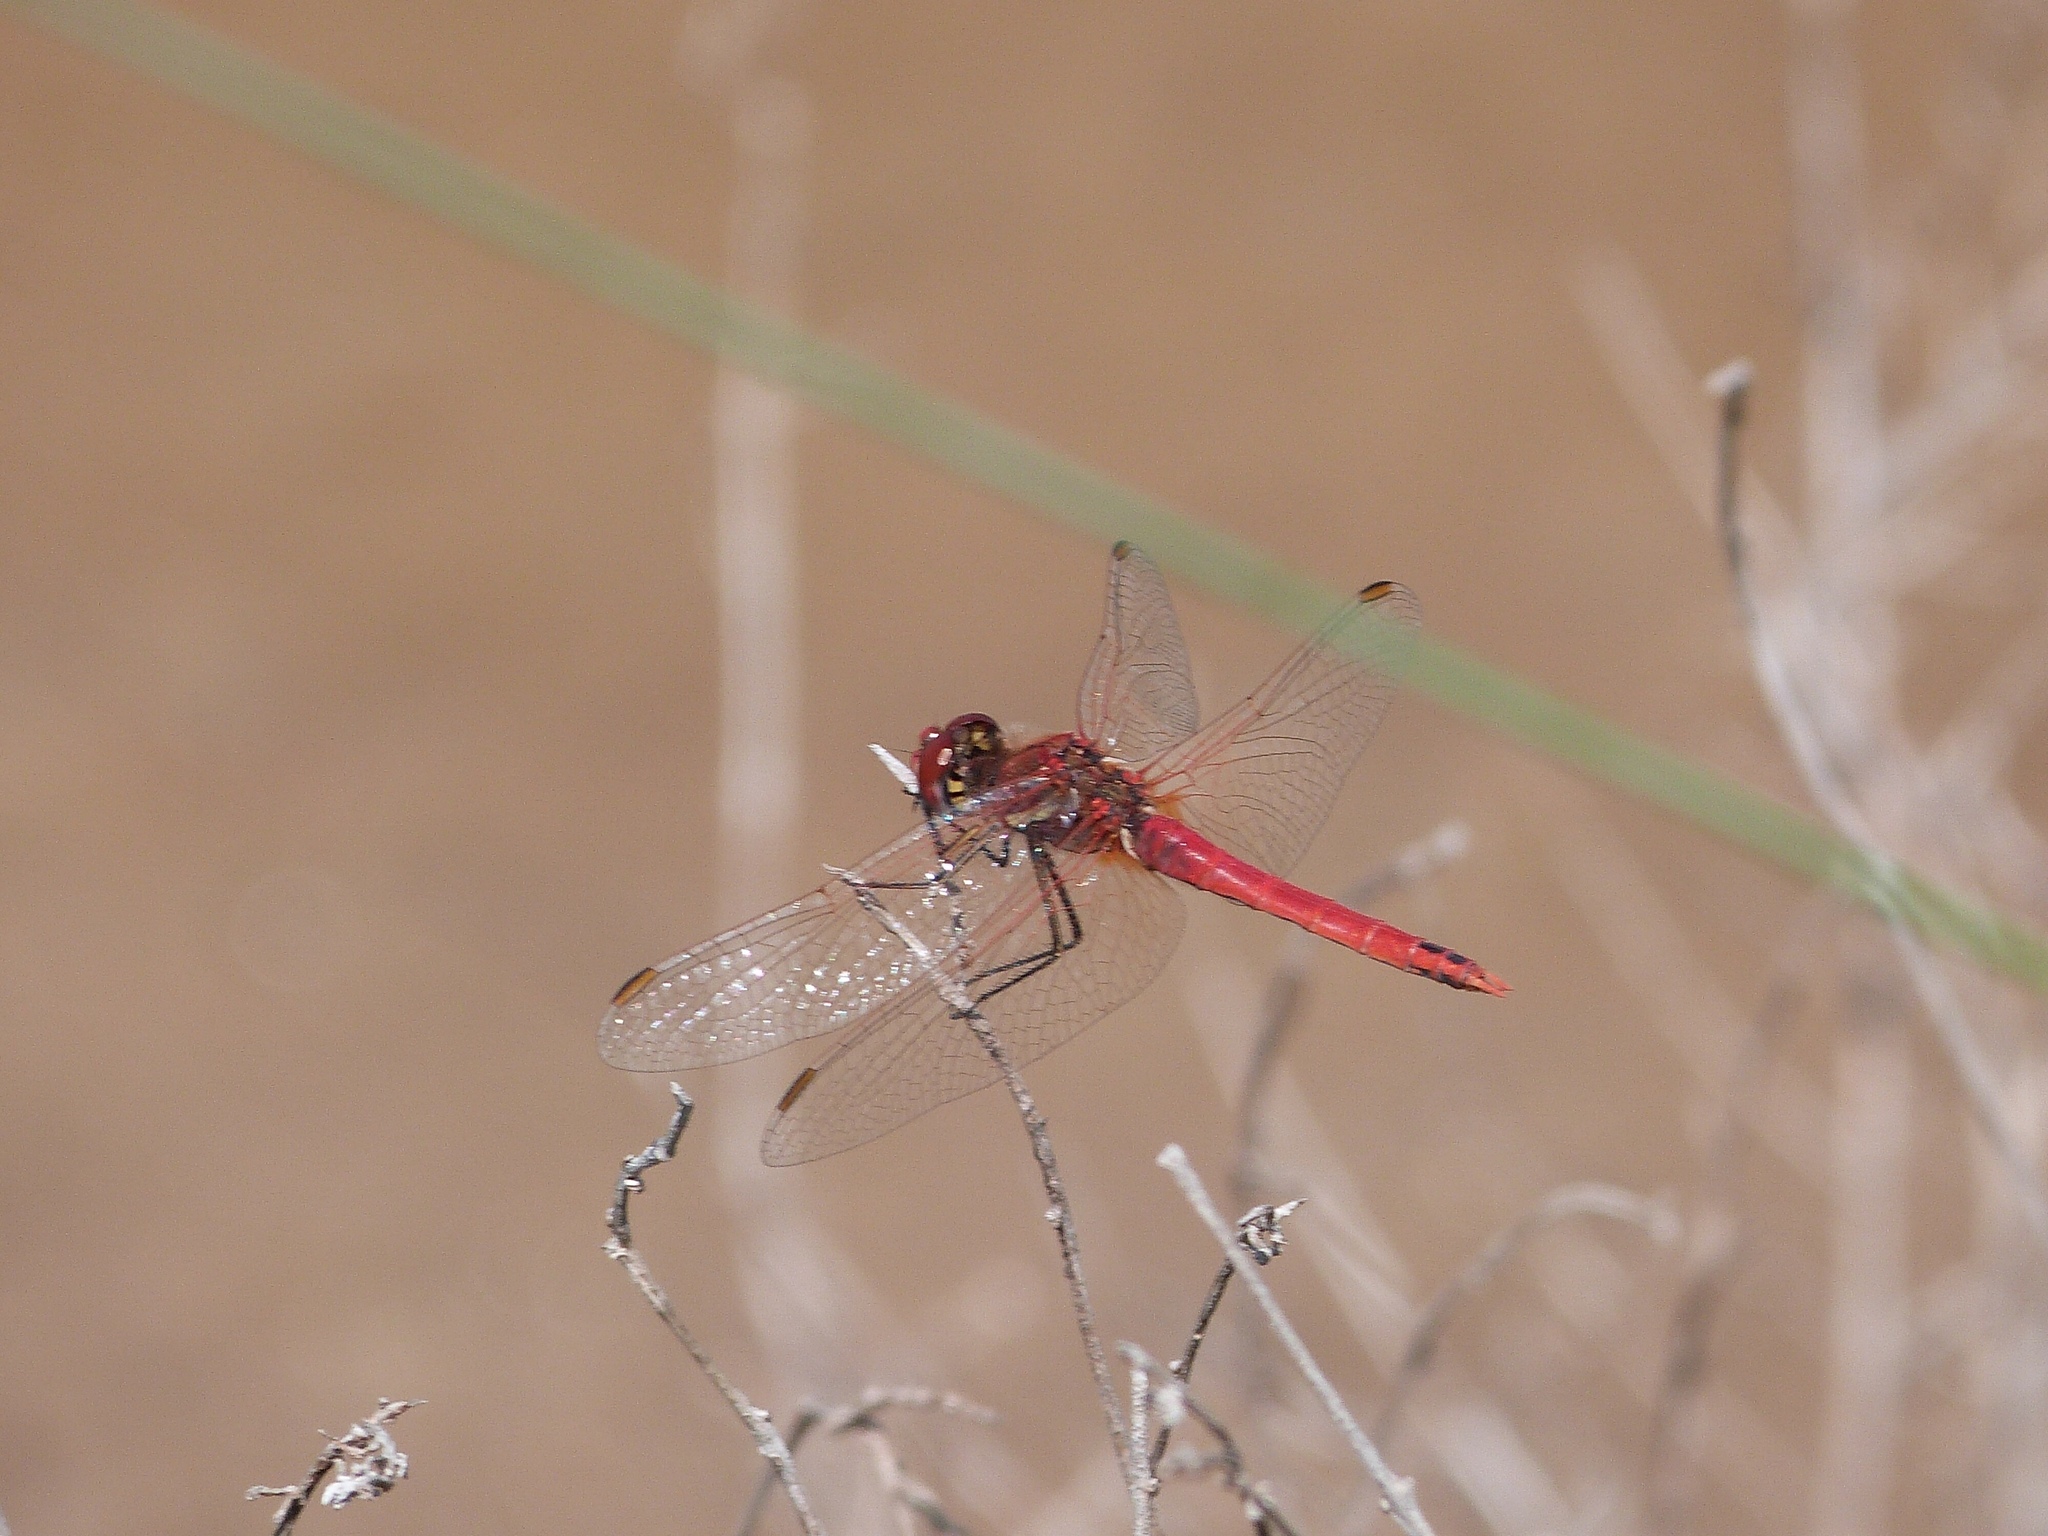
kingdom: Animalia
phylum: Arthropoda
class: Insecta
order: Odonata
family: Libellulidae
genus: Sympetrum
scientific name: Sympetrum fonscolombii
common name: Red-veined darter
